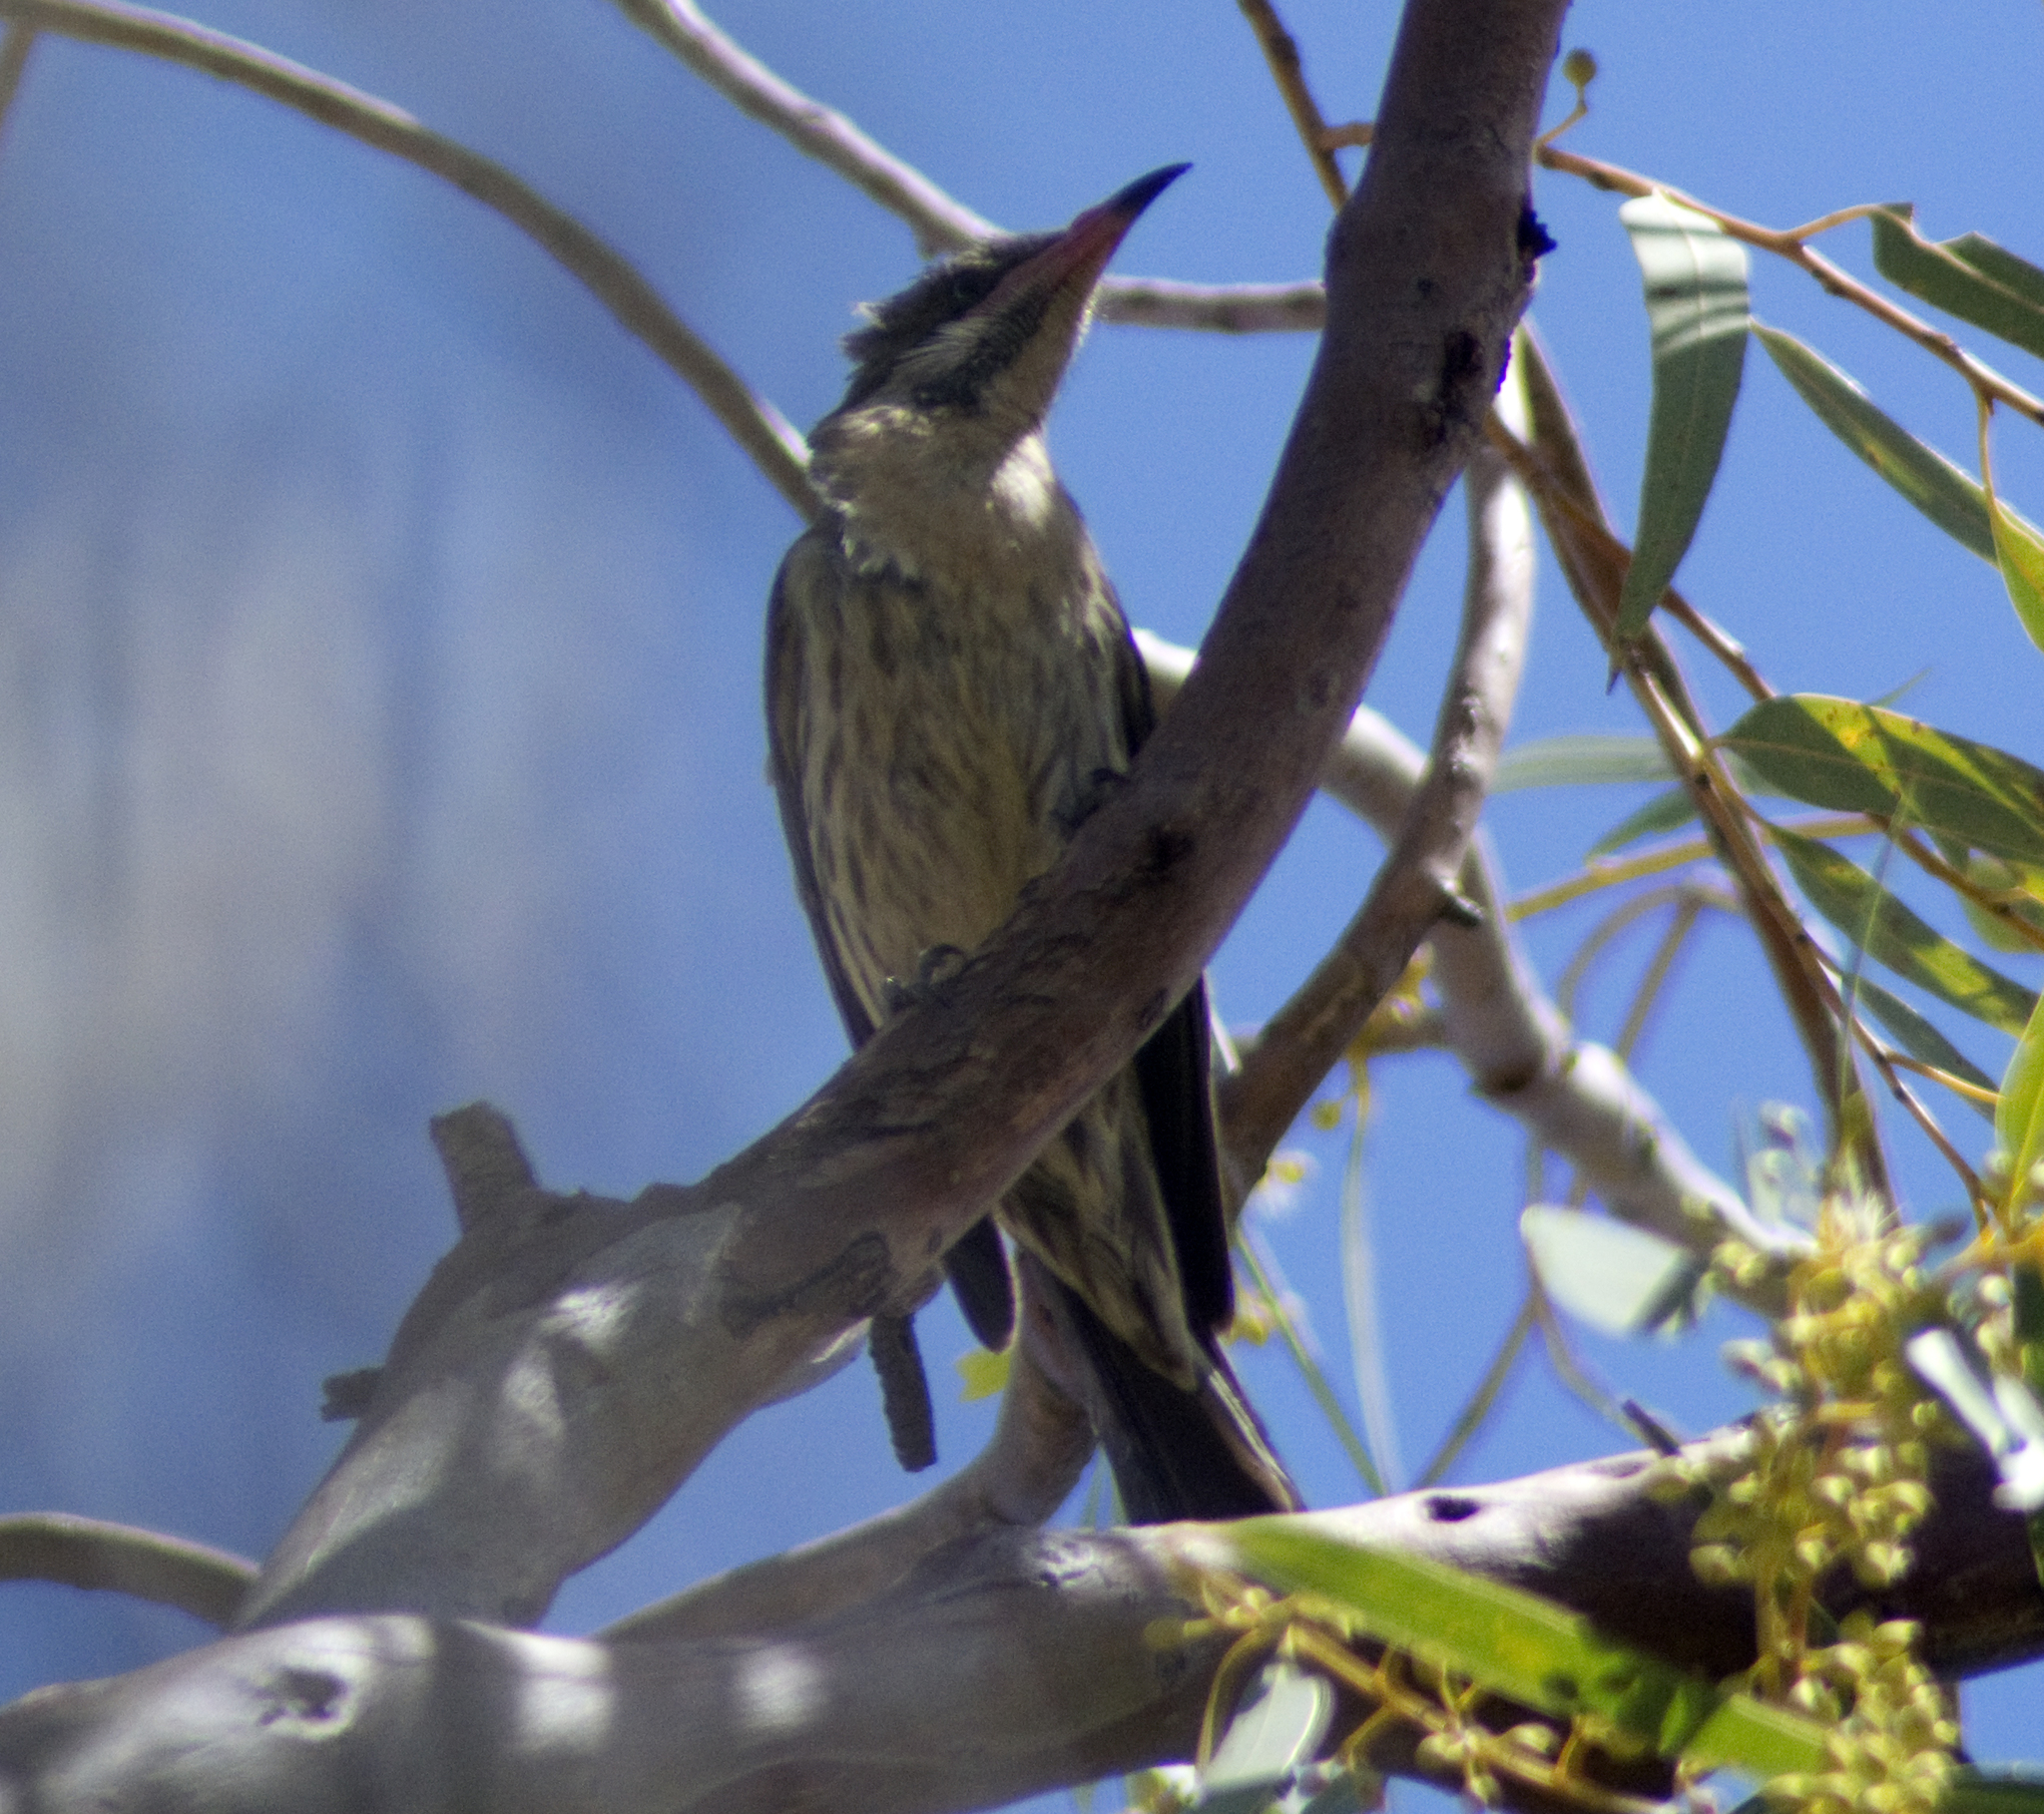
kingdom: Animalia
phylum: Chordata
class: Aves
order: Passeriformes
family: Meliphagidae
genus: Acanthagenys
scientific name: Acanthagenys rufogularis
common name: Spiny-cheeked honeyeater
